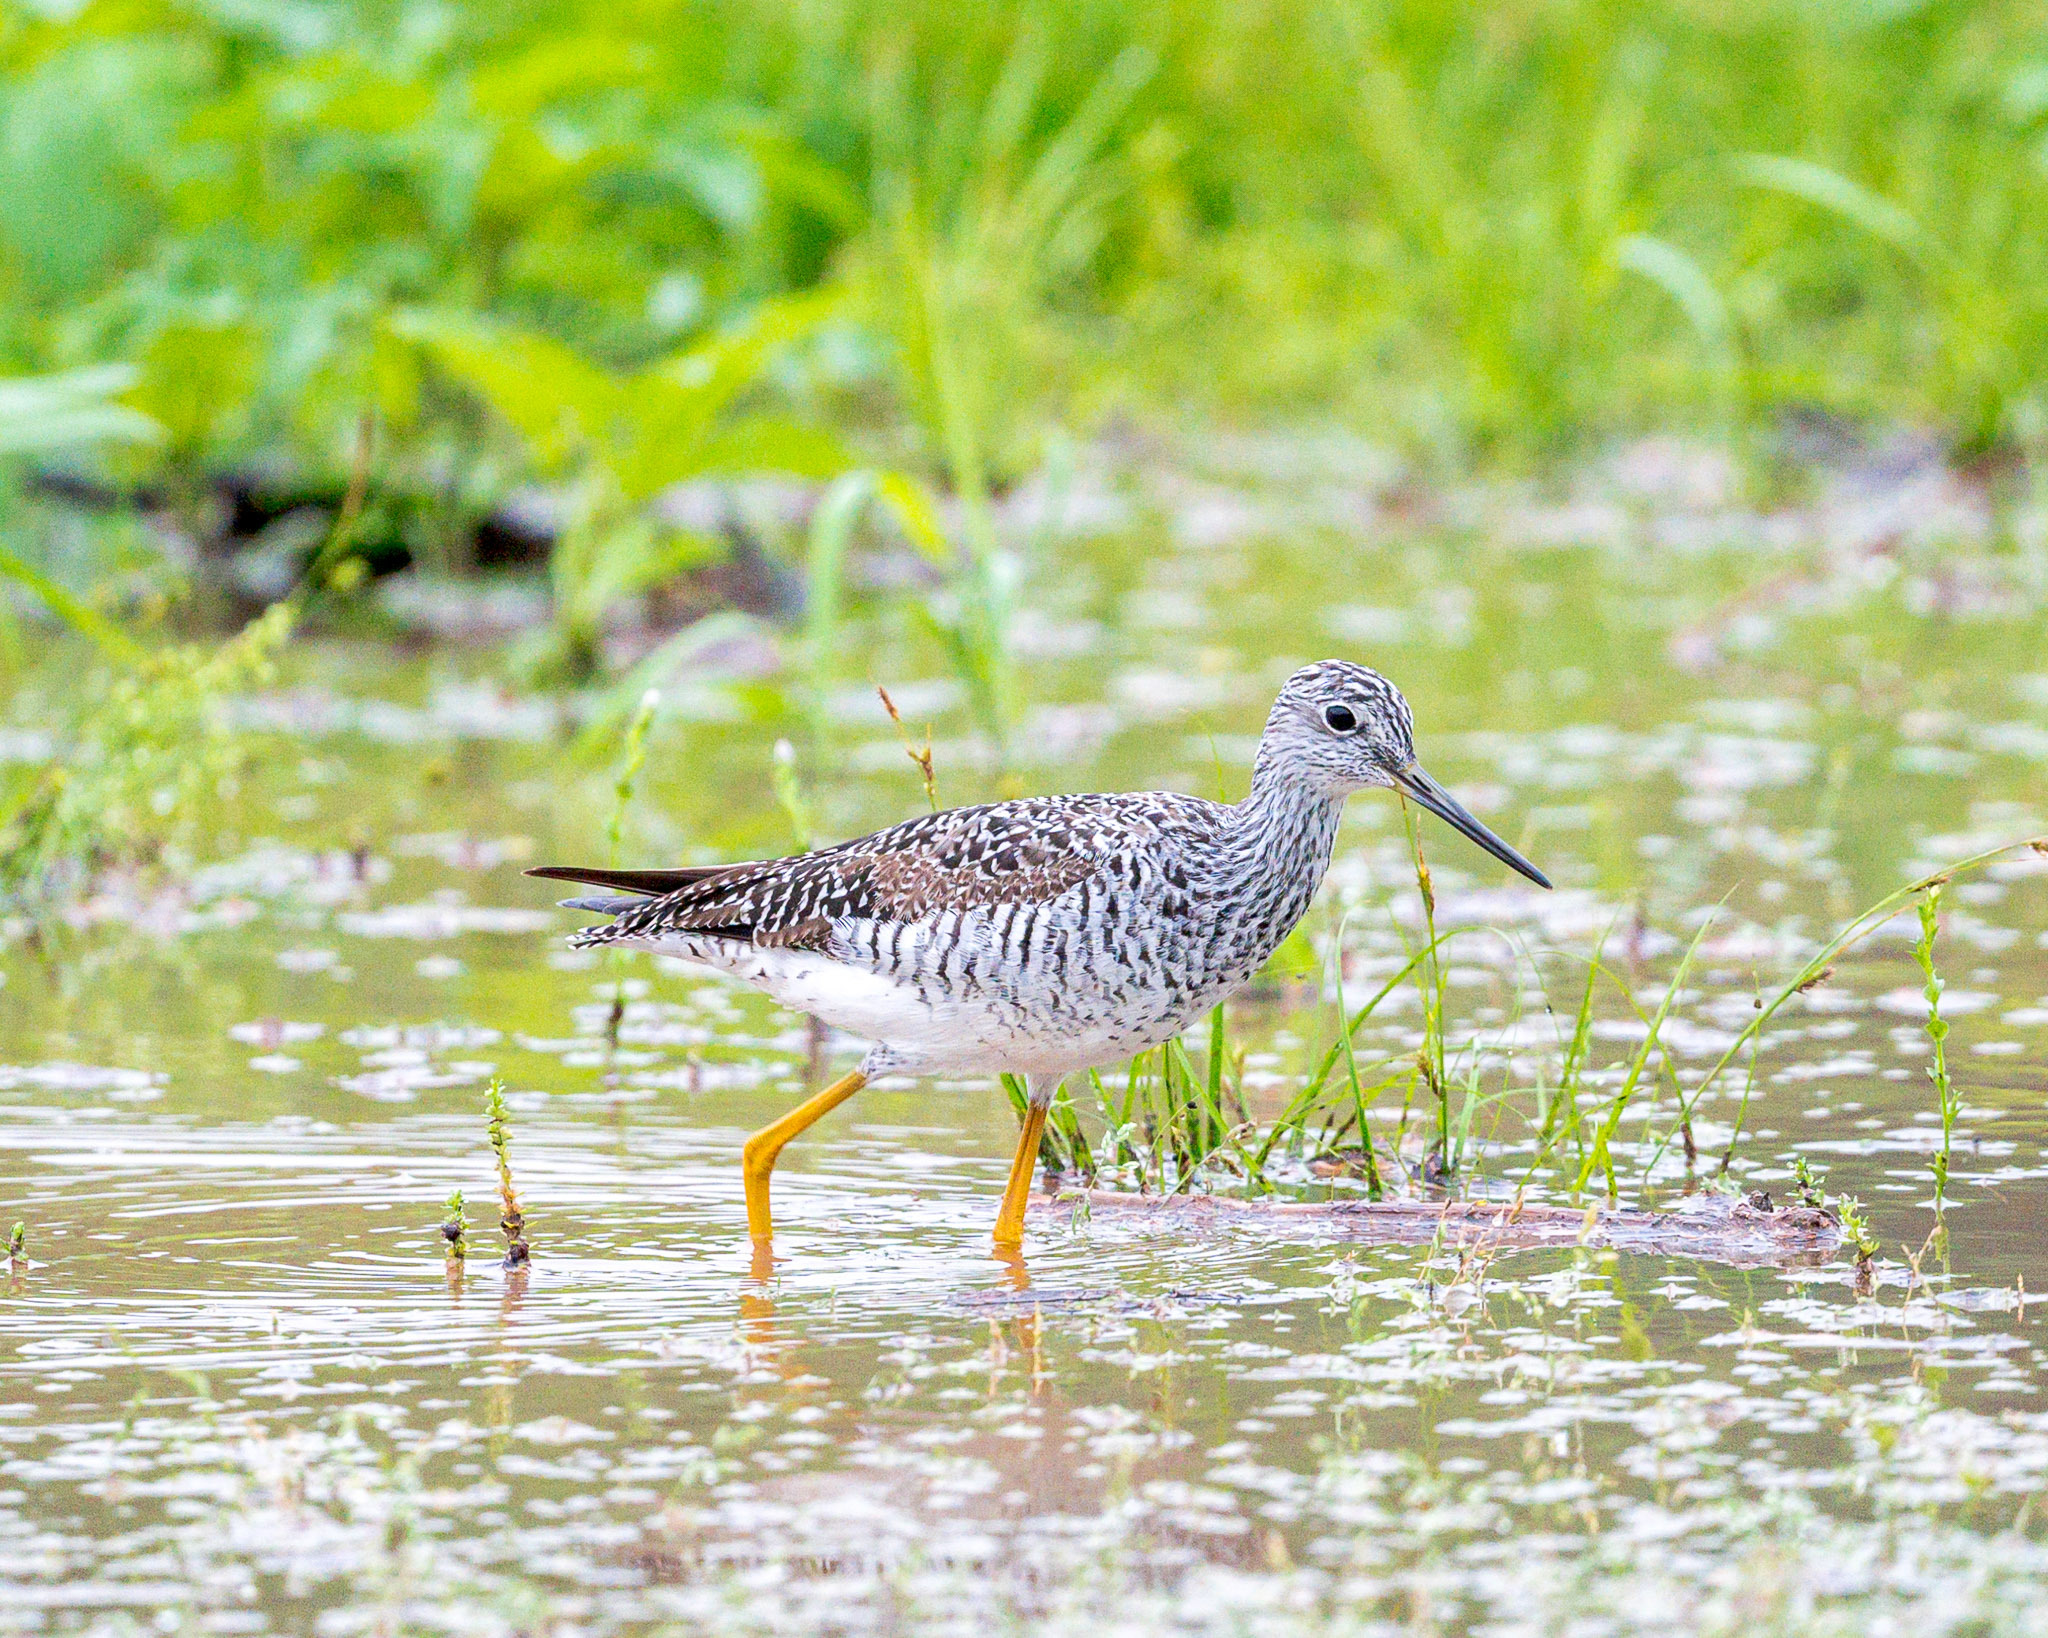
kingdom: Animalia
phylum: Chordata
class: Aves
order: Charadriiformes
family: Scolopacidae
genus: Tringa
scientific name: Tringa melanoleuca
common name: Greater yellowlegs
